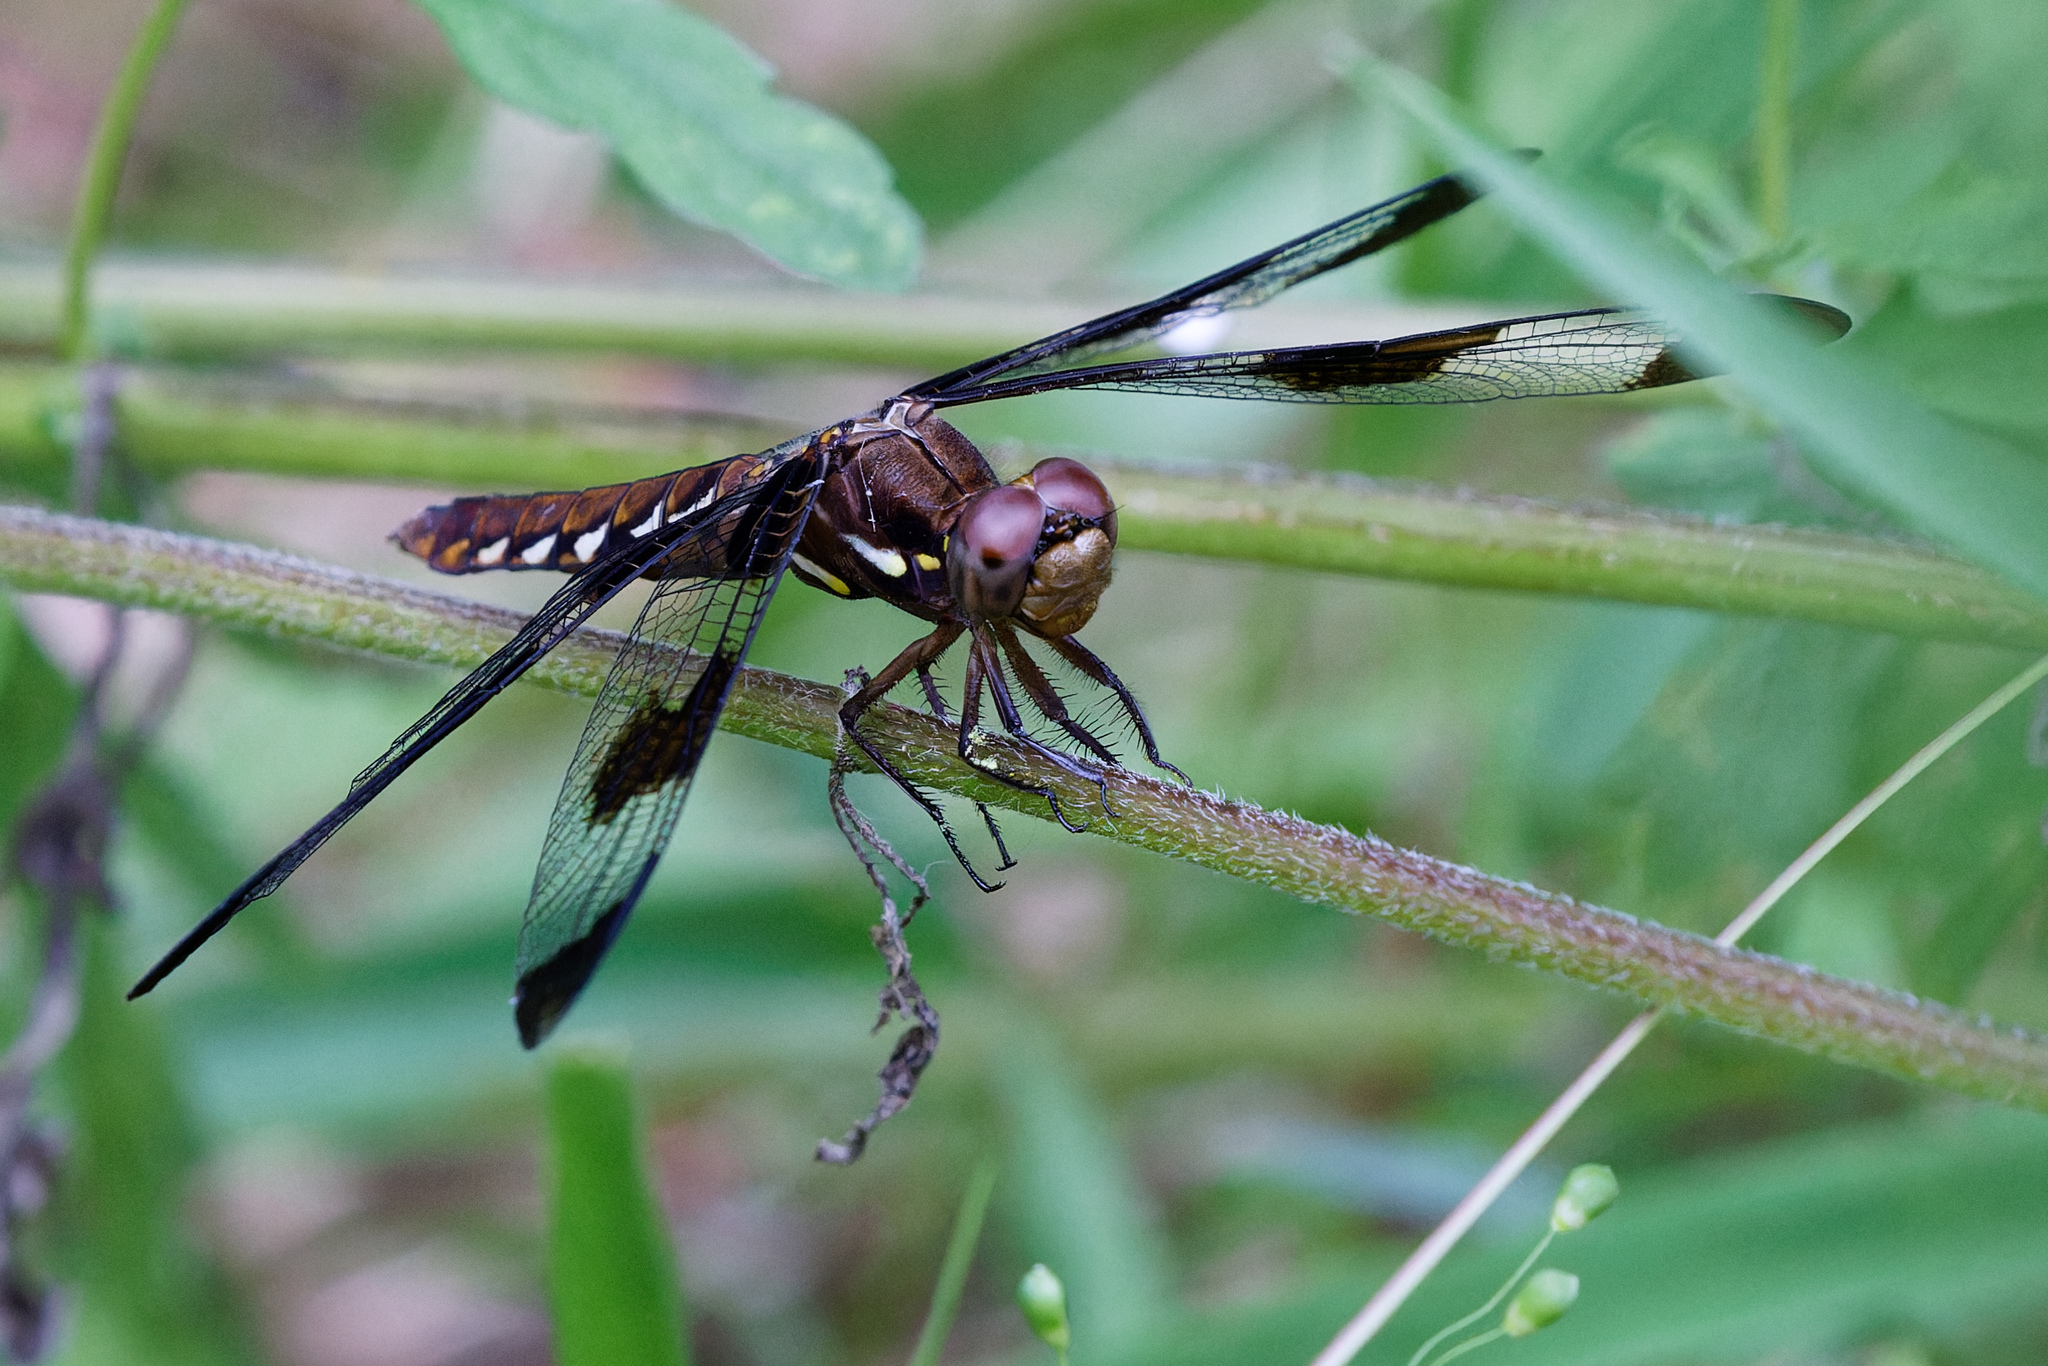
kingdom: Animalia
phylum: Arthropoda
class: Insecta
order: Odonata
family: Libellulidae
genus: Plathemis
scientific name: Plathemis lydia
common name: Common whitetail
